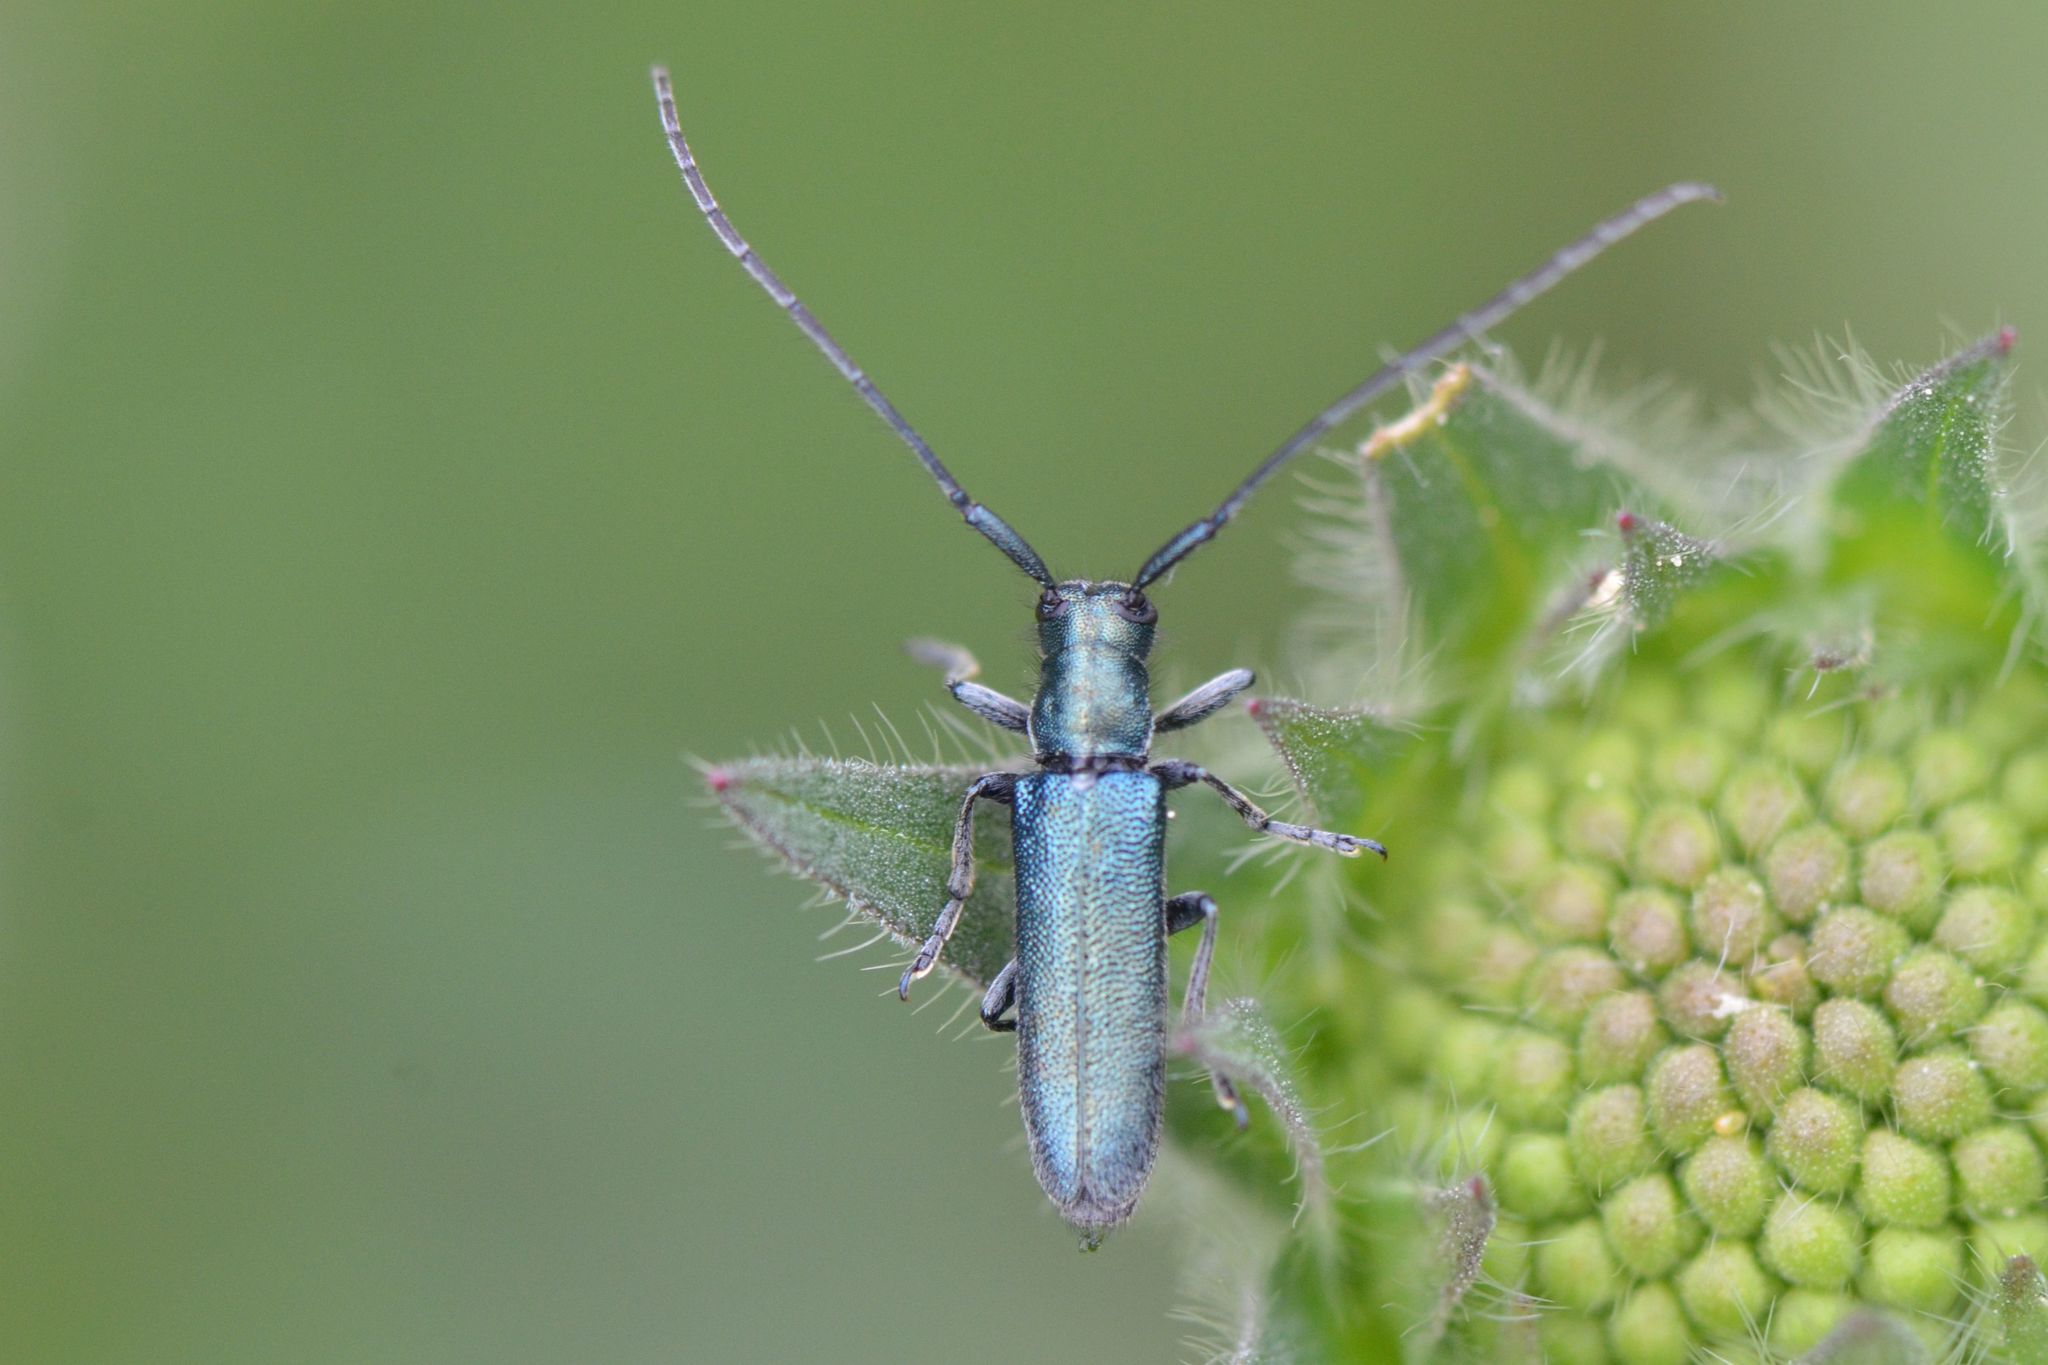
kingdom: Animalia
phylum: Arthropoda
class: Insecta
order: Coleoptera
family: Cerambycidae
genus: Agapanthia
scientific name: Agapanthia intermedia
